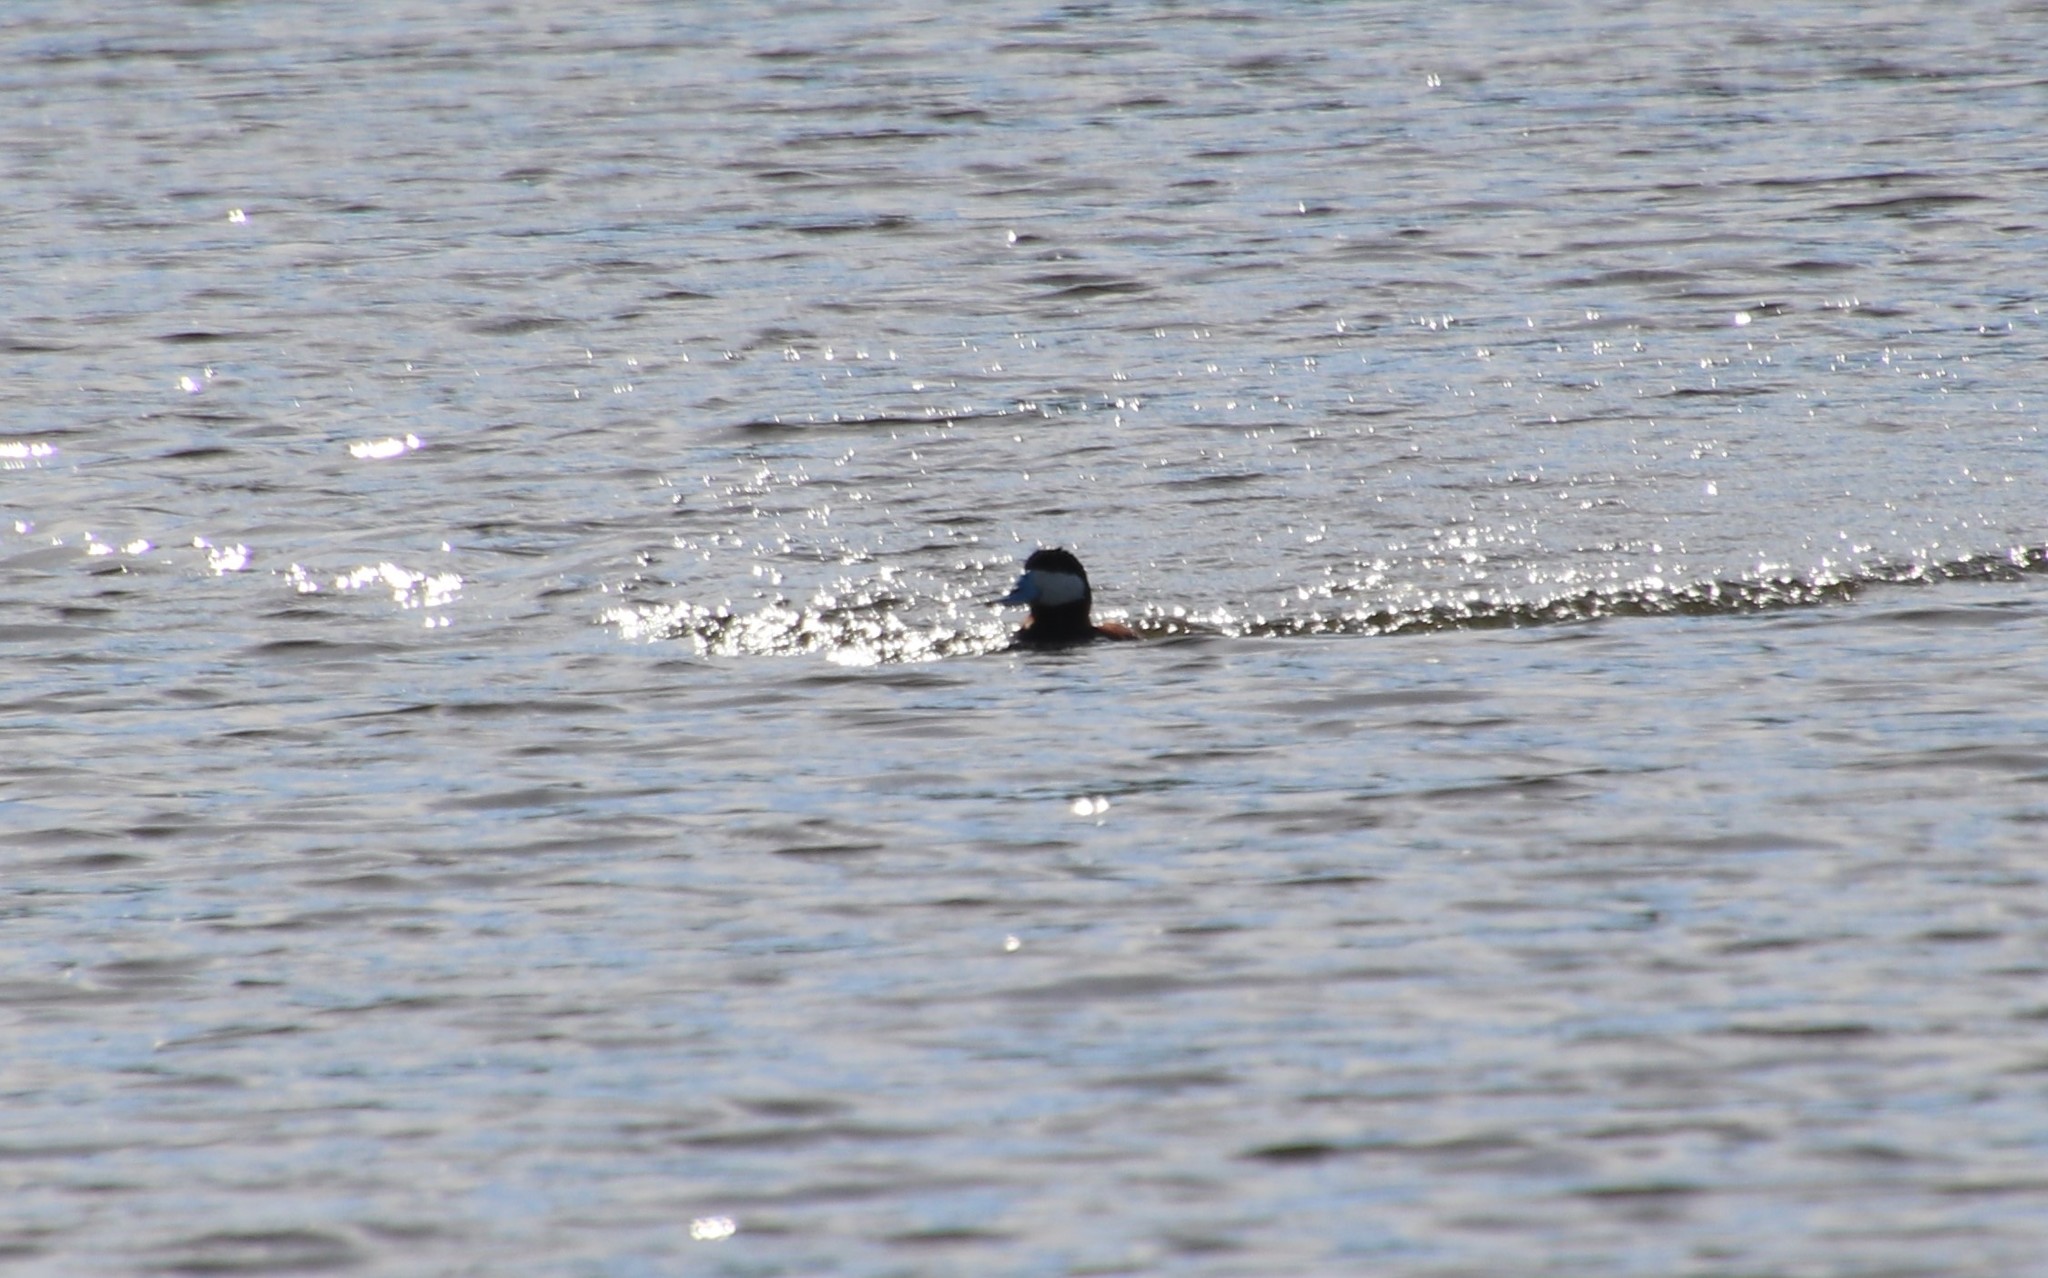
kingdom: Animalia
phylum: Chordata
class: Aves
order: Anseriformes
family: Anatidae
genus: Oxyura
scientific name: Oxyura jamaicensis
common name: Ruddy duck
